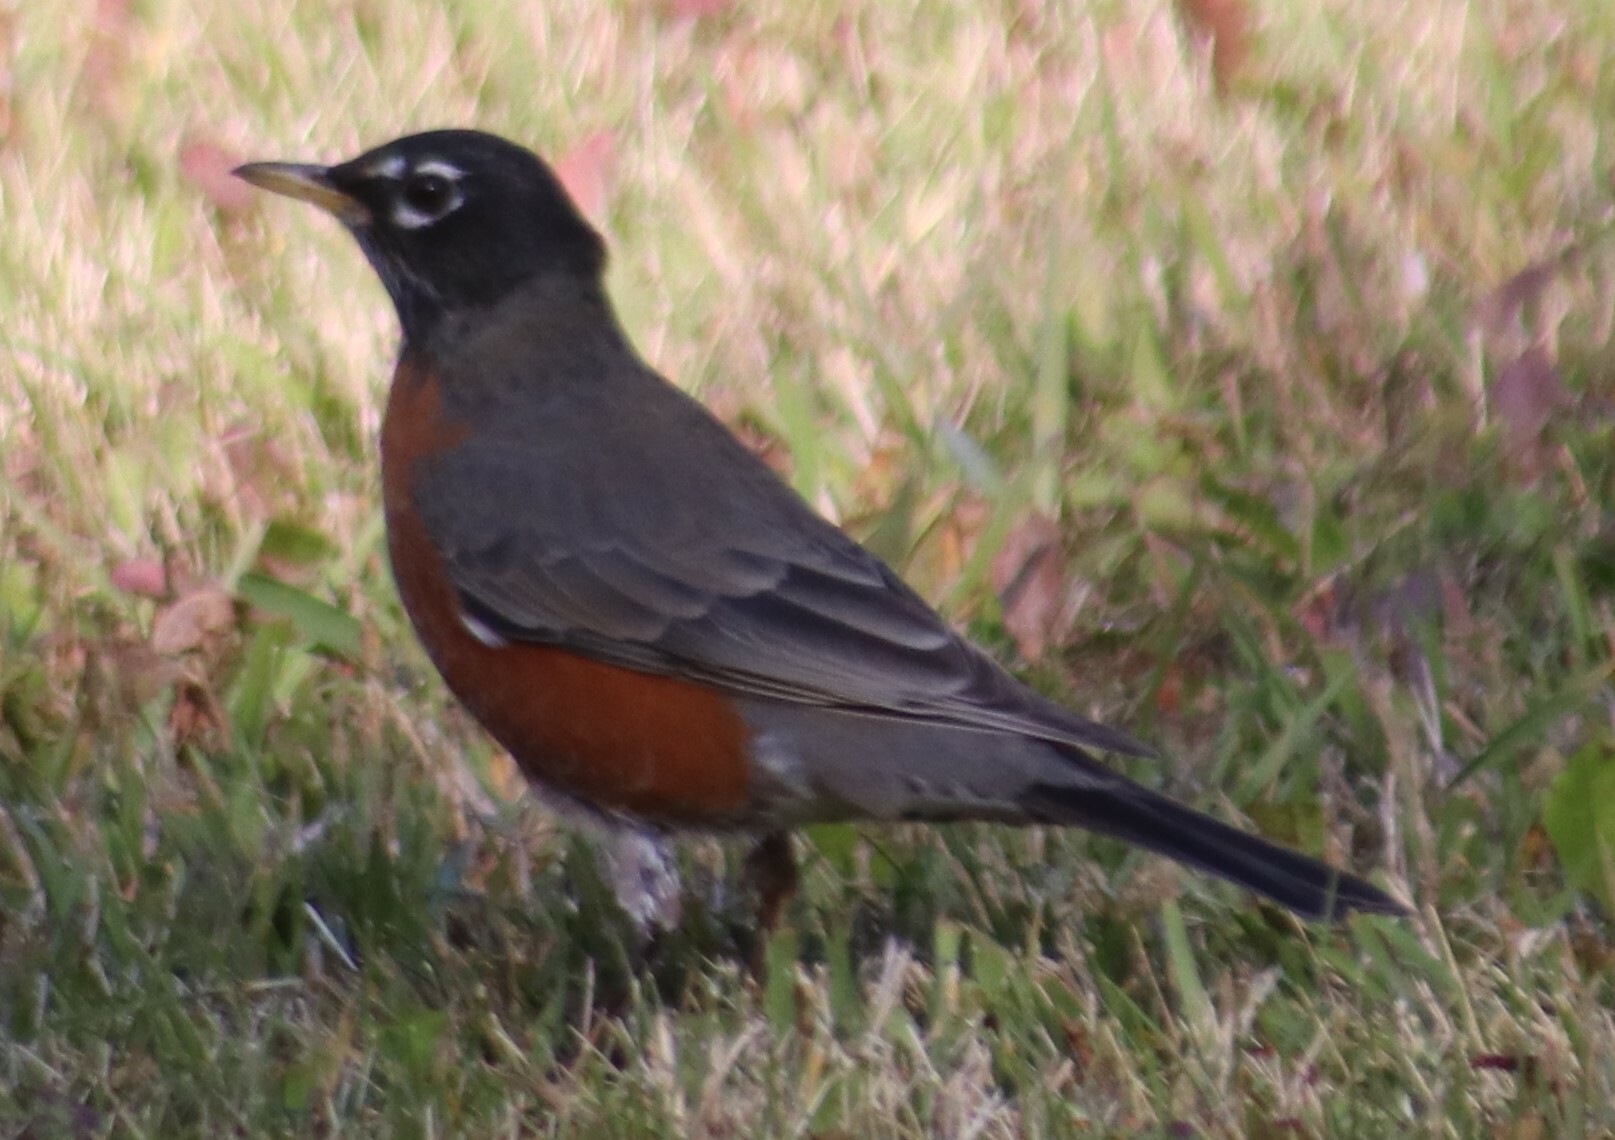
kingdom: Animalia
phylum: Chordata
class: Aves
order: Passeriformes
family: Turdidae
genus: Turdus
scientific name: Turdus migratorius
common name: American robin
